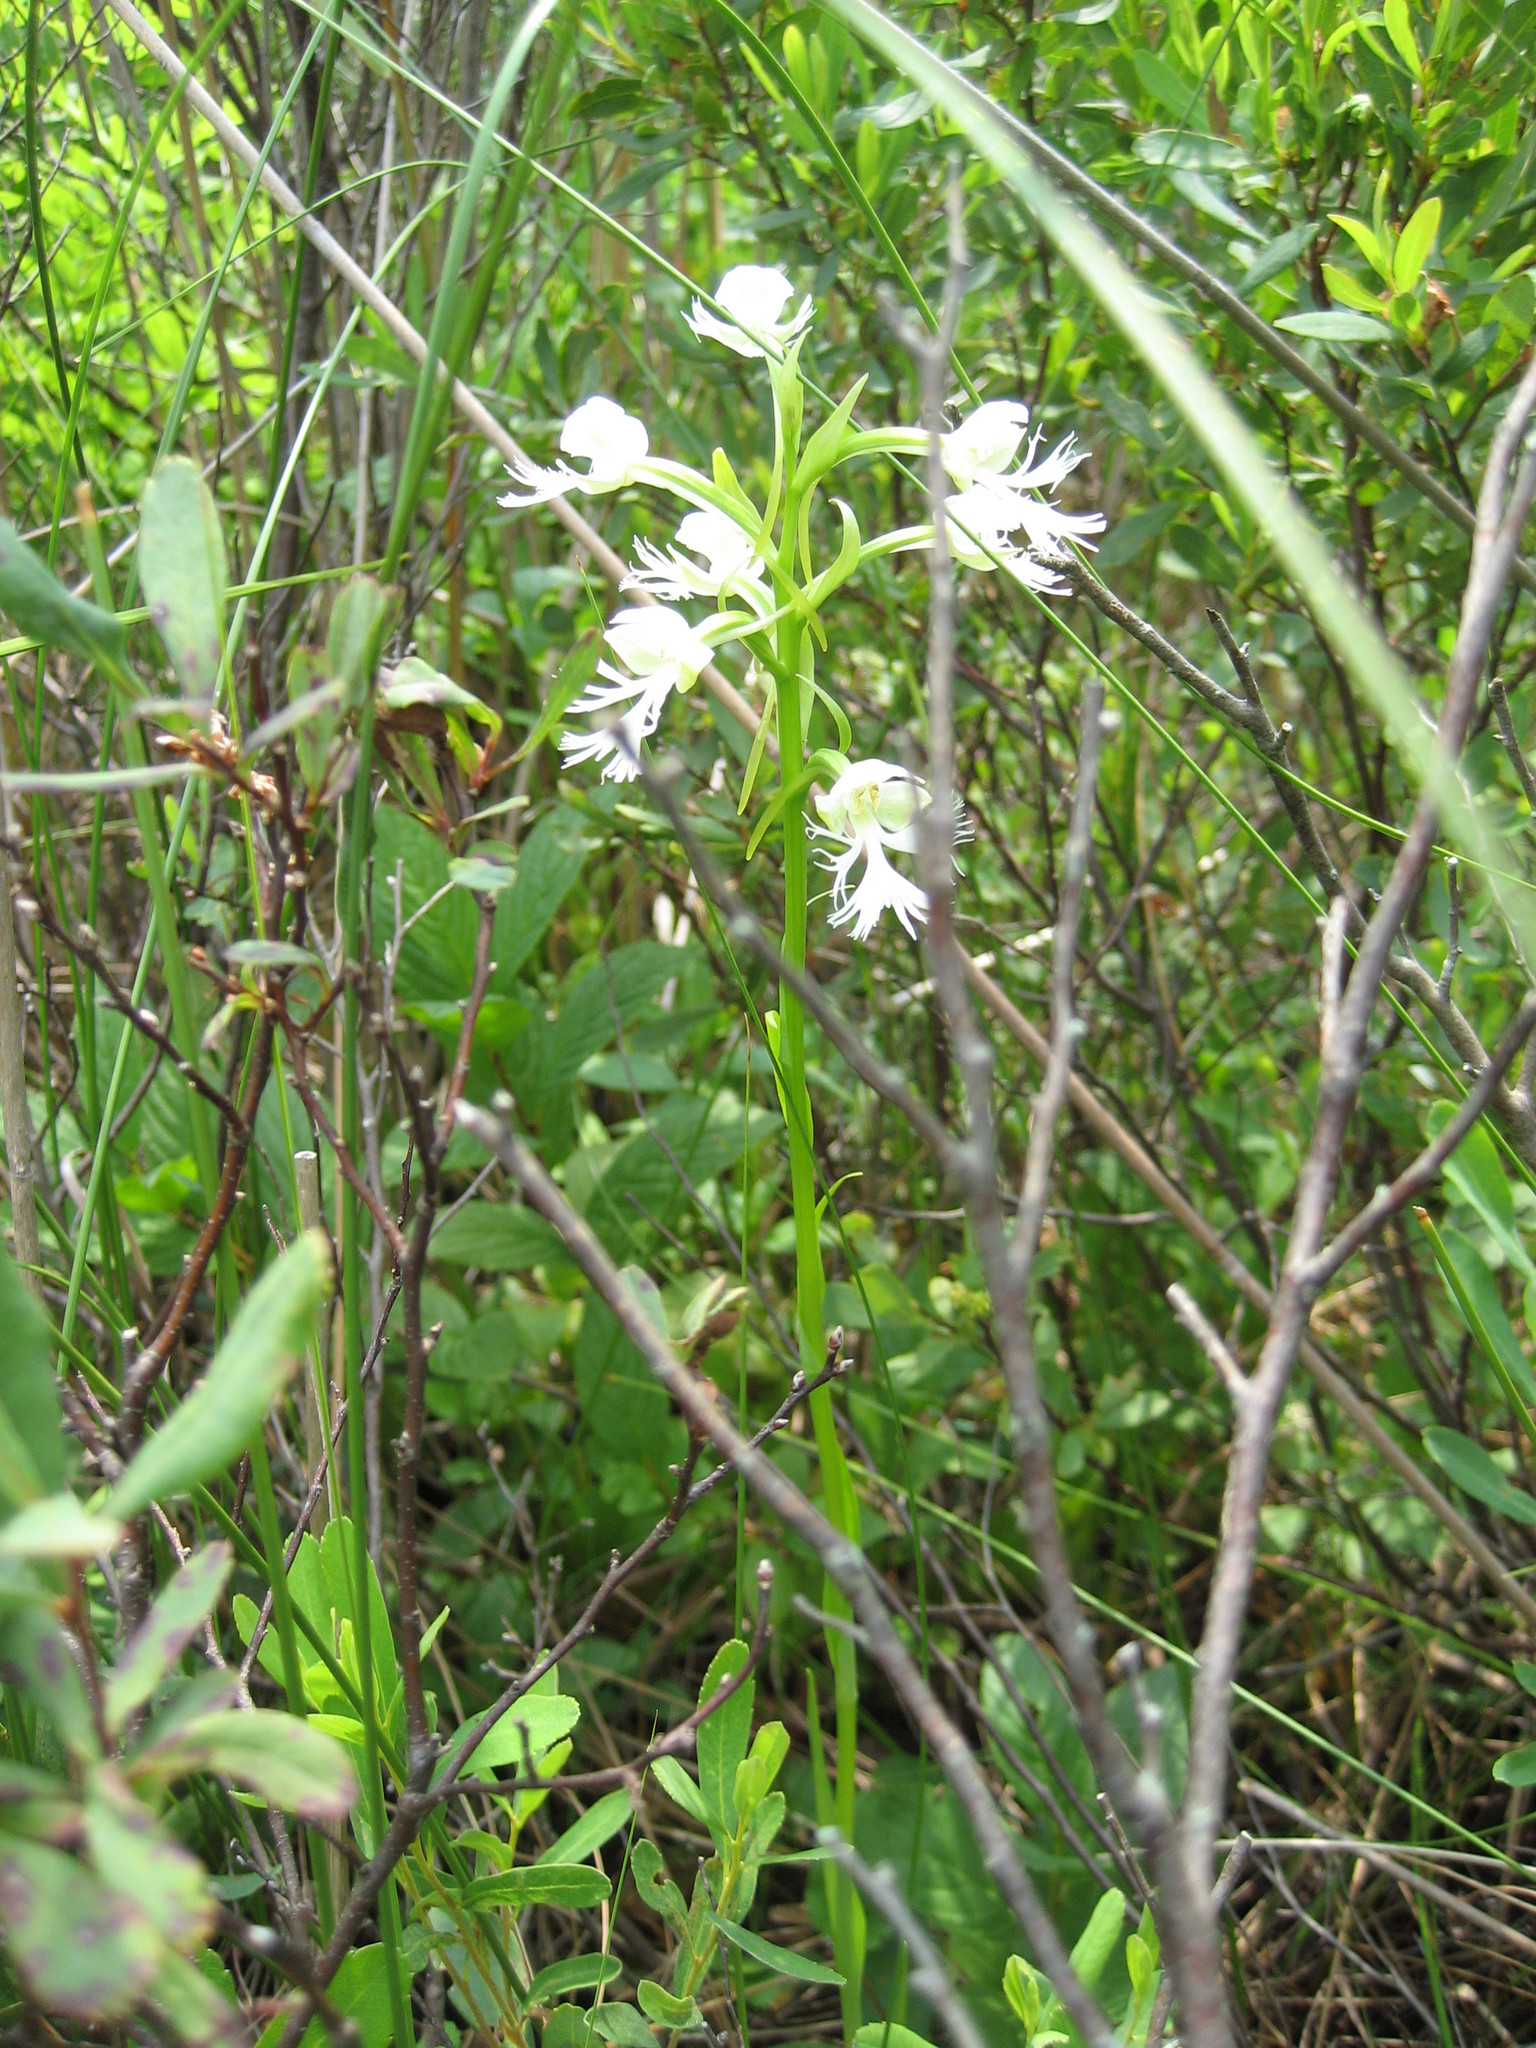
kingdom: Plantae
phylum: Tracheophyta
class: Liliopsida
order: Asparagales
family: Orchidaceae
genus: Platanthera
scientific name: Platanthera leucophaea
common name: Eastern prairie white-fringed orchid
